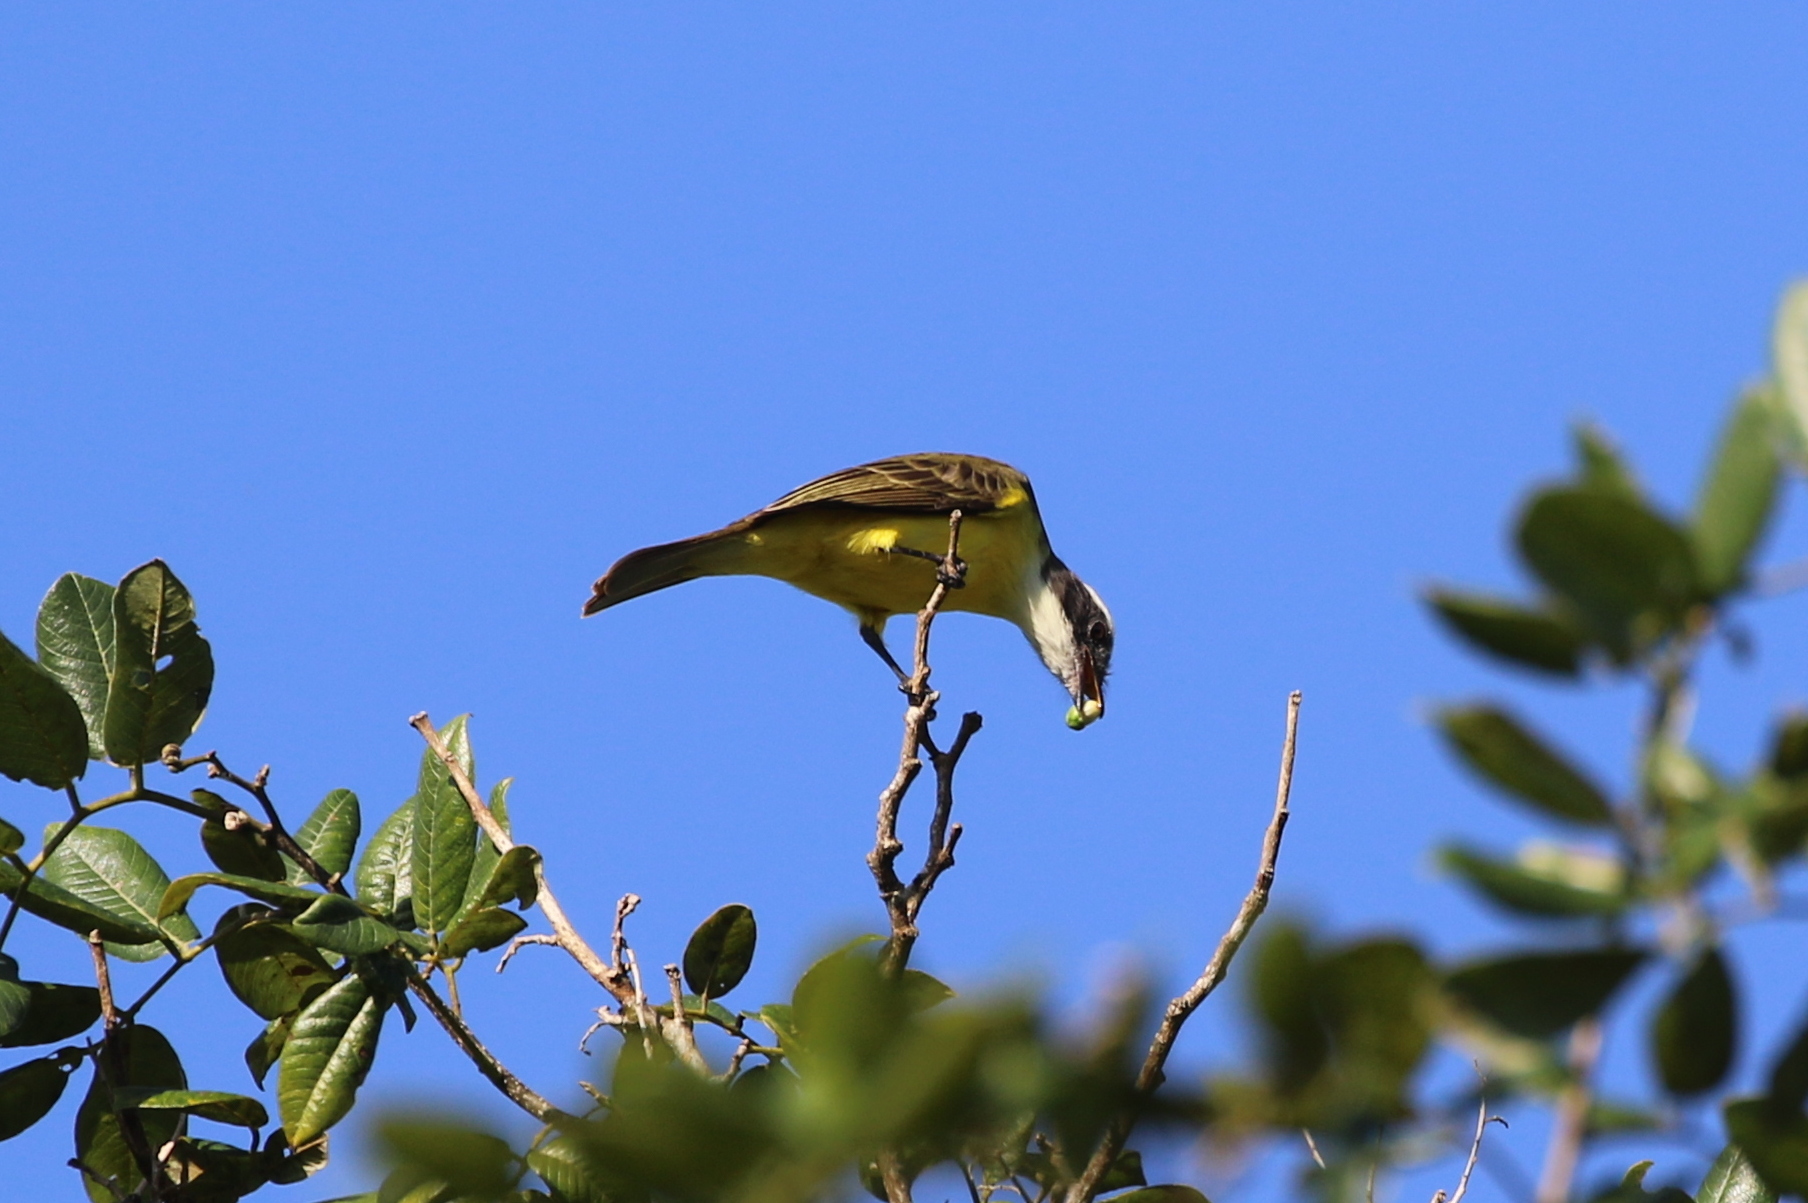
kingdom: Animalia
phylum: Chordata
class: Aves
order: Passeriformes
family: Tyrannidae
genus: Myiozetetes
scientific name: Myiozetetes similis
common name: Social flycatcher
